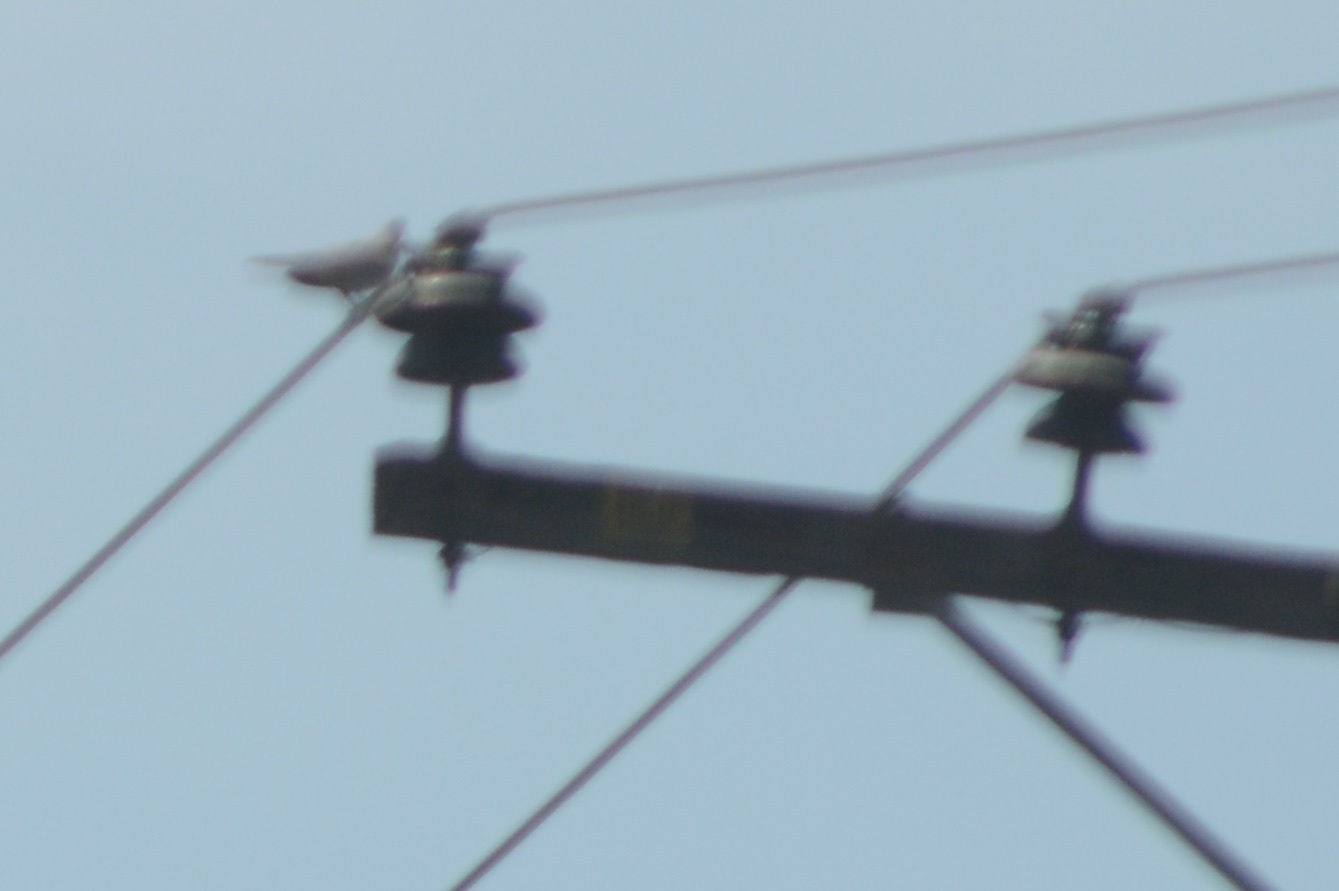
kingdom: Animalia
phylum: Chordata
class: Aves
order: Columbiformes
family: Columbidae
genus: Zenaida
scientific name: Zenaida macroura
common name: Mourning dove
